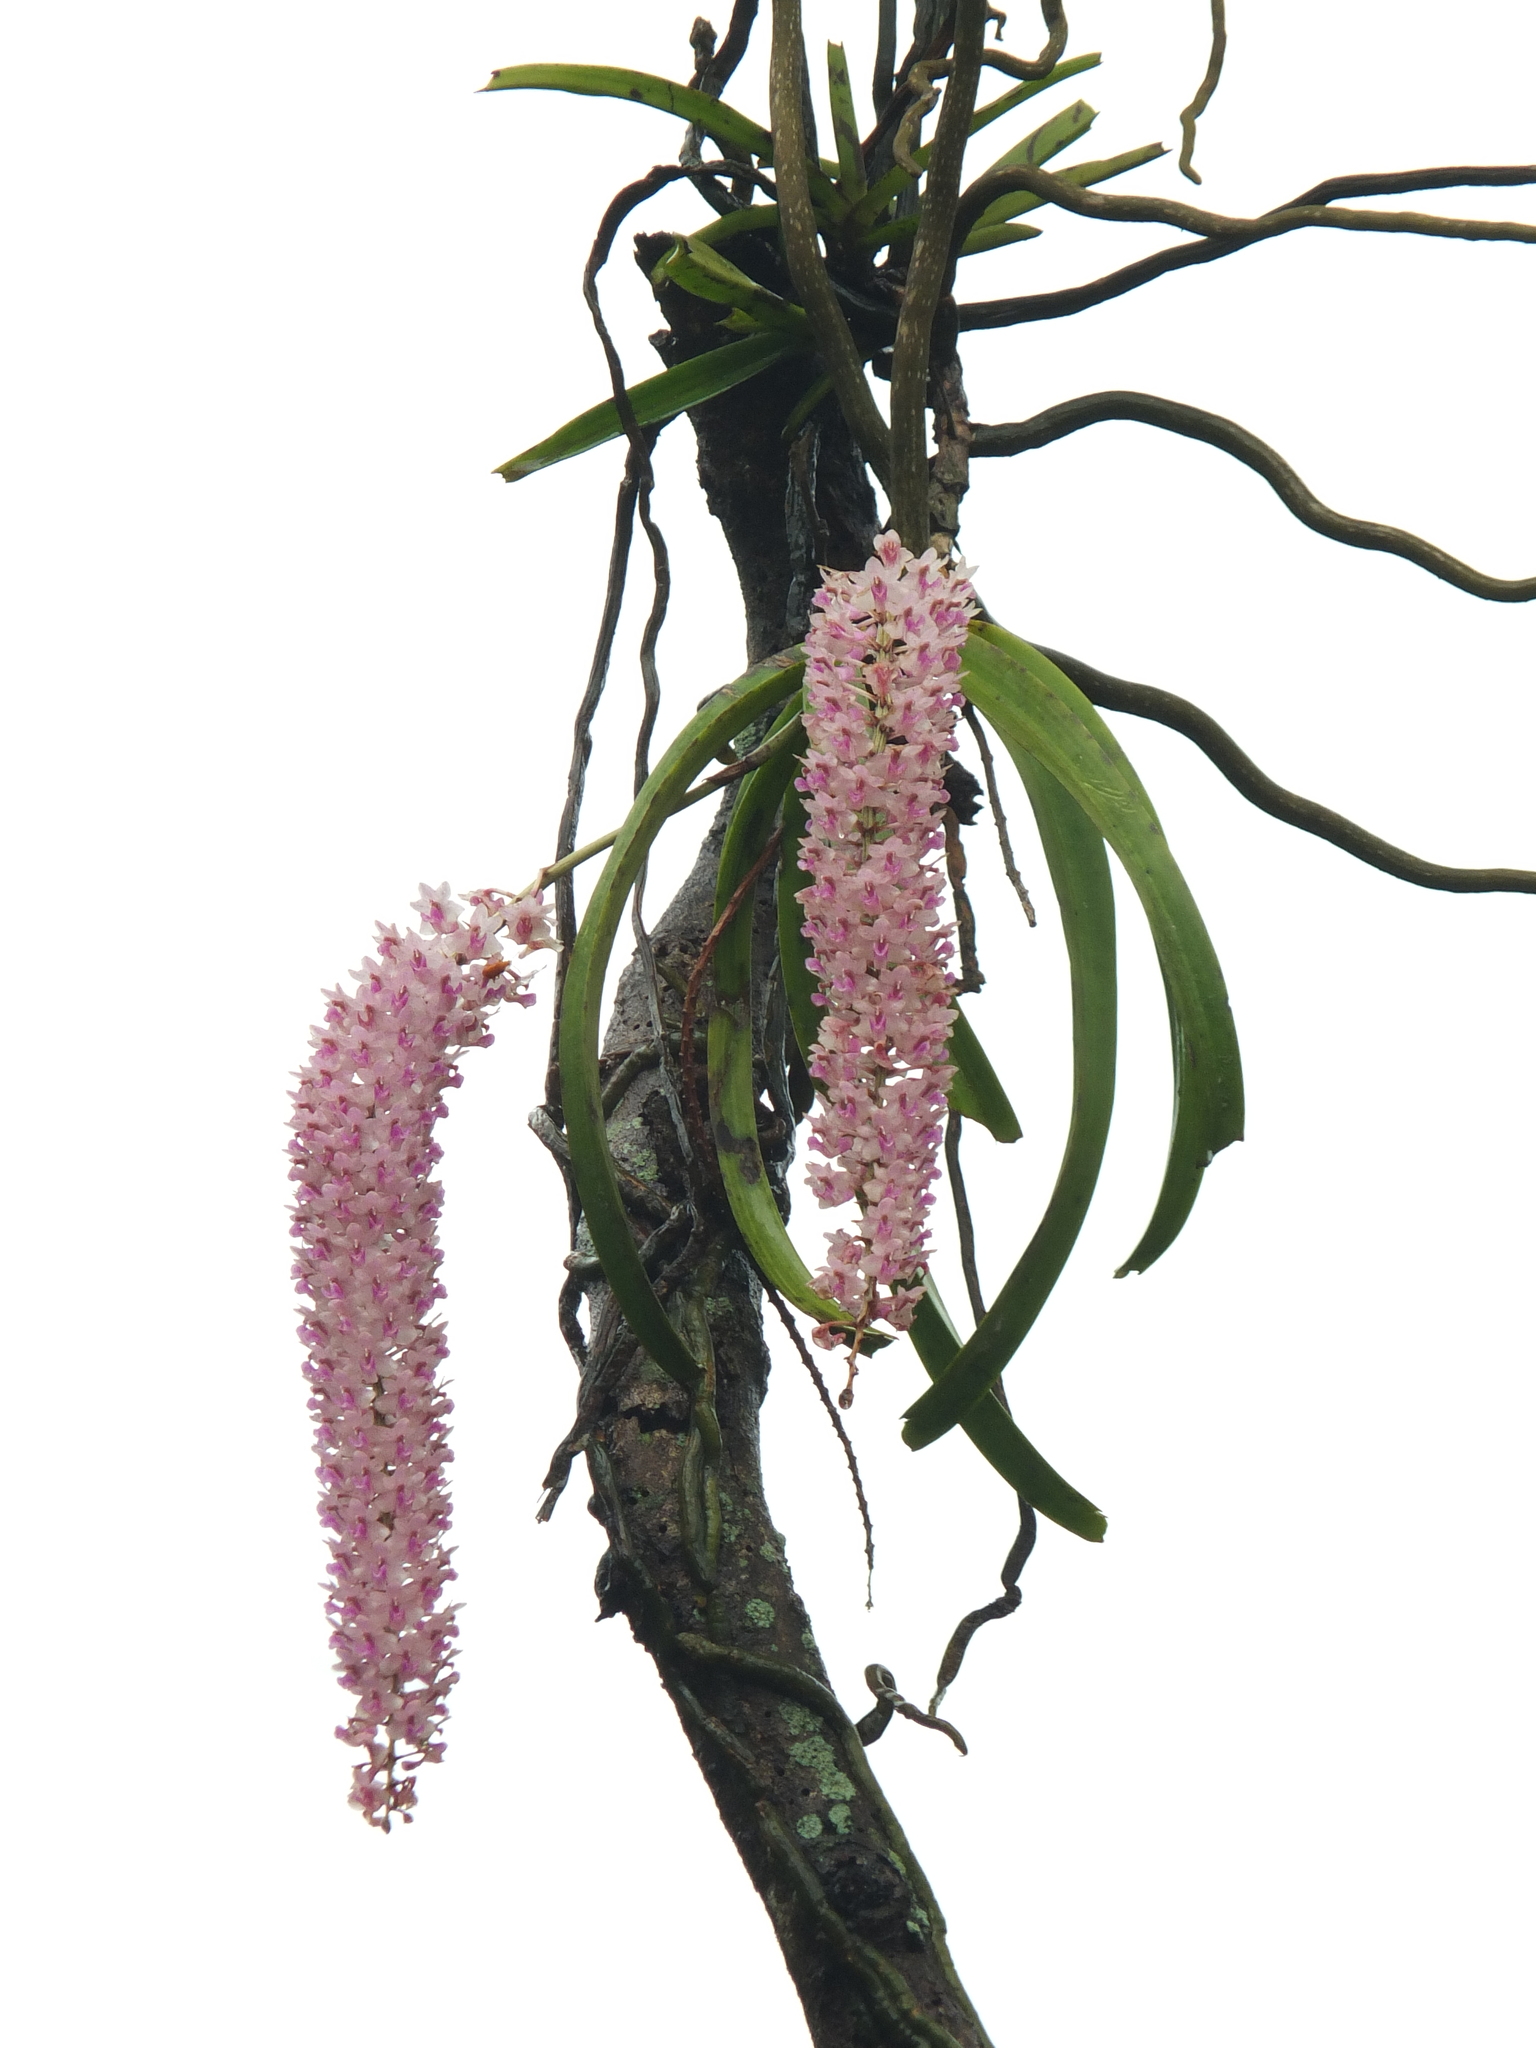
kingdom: Plantae
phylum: Tracheophyta
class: Liliopsida
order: Asparagales
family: Orchidaceae
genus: Rhynchostylis
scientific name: Rhynchostylis retusa
